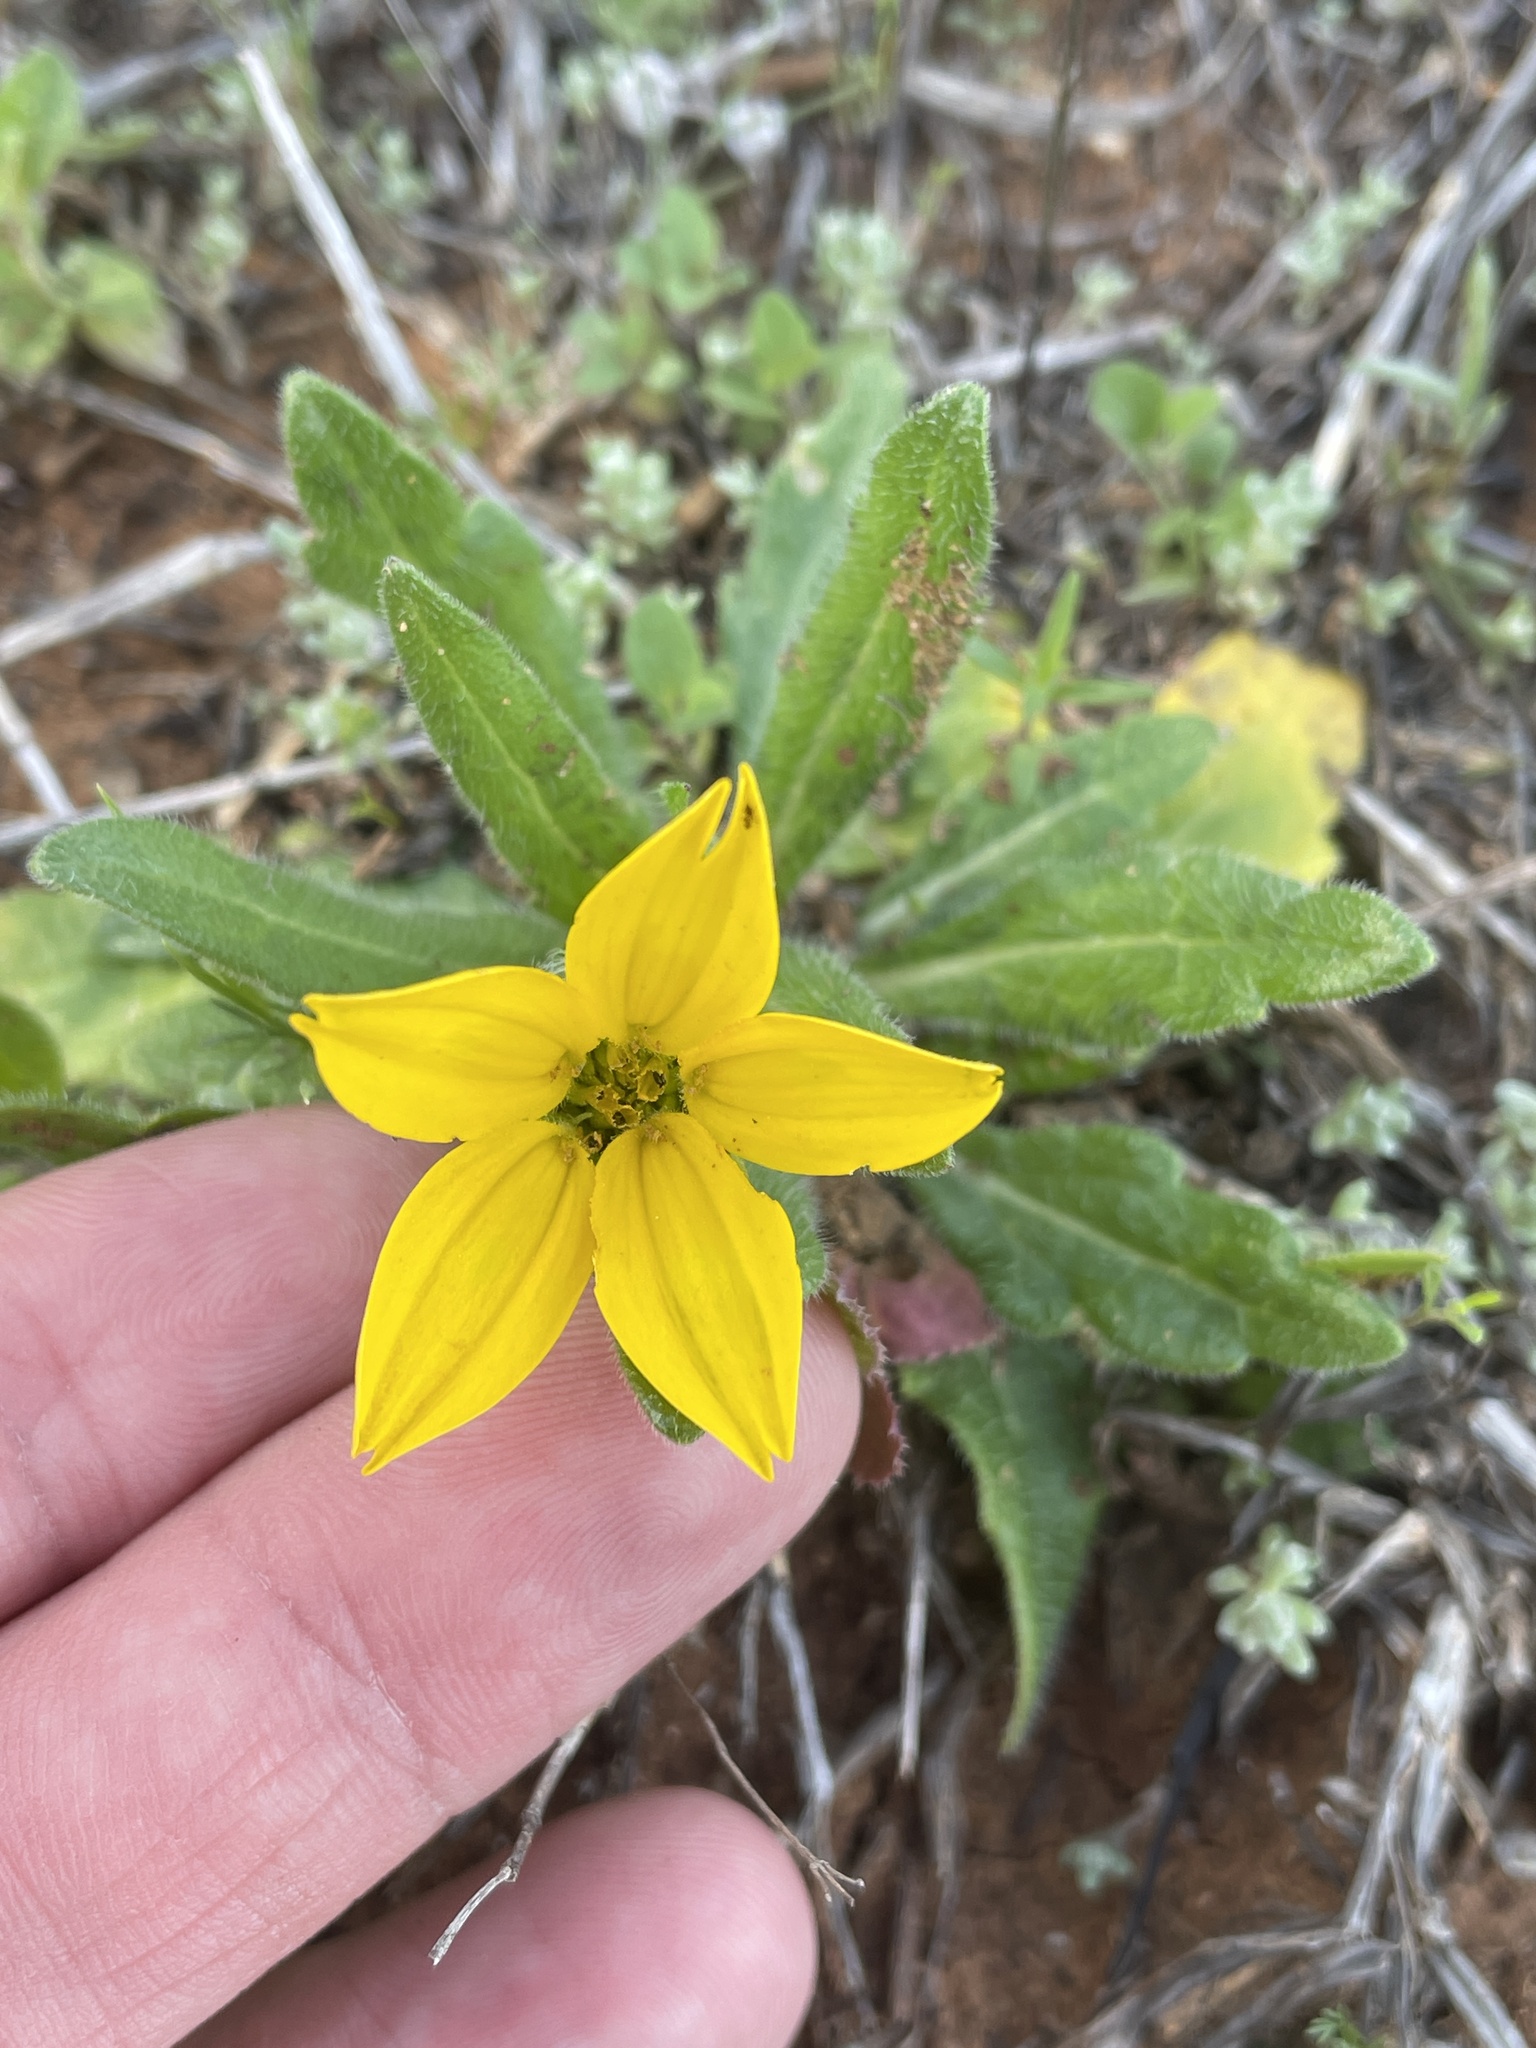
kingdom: Plantae
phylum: Tracheophyta
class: Magnoliopsida
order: Asterales
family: Asteraceae
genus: Lindheimera
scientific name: Lindheimera texana
